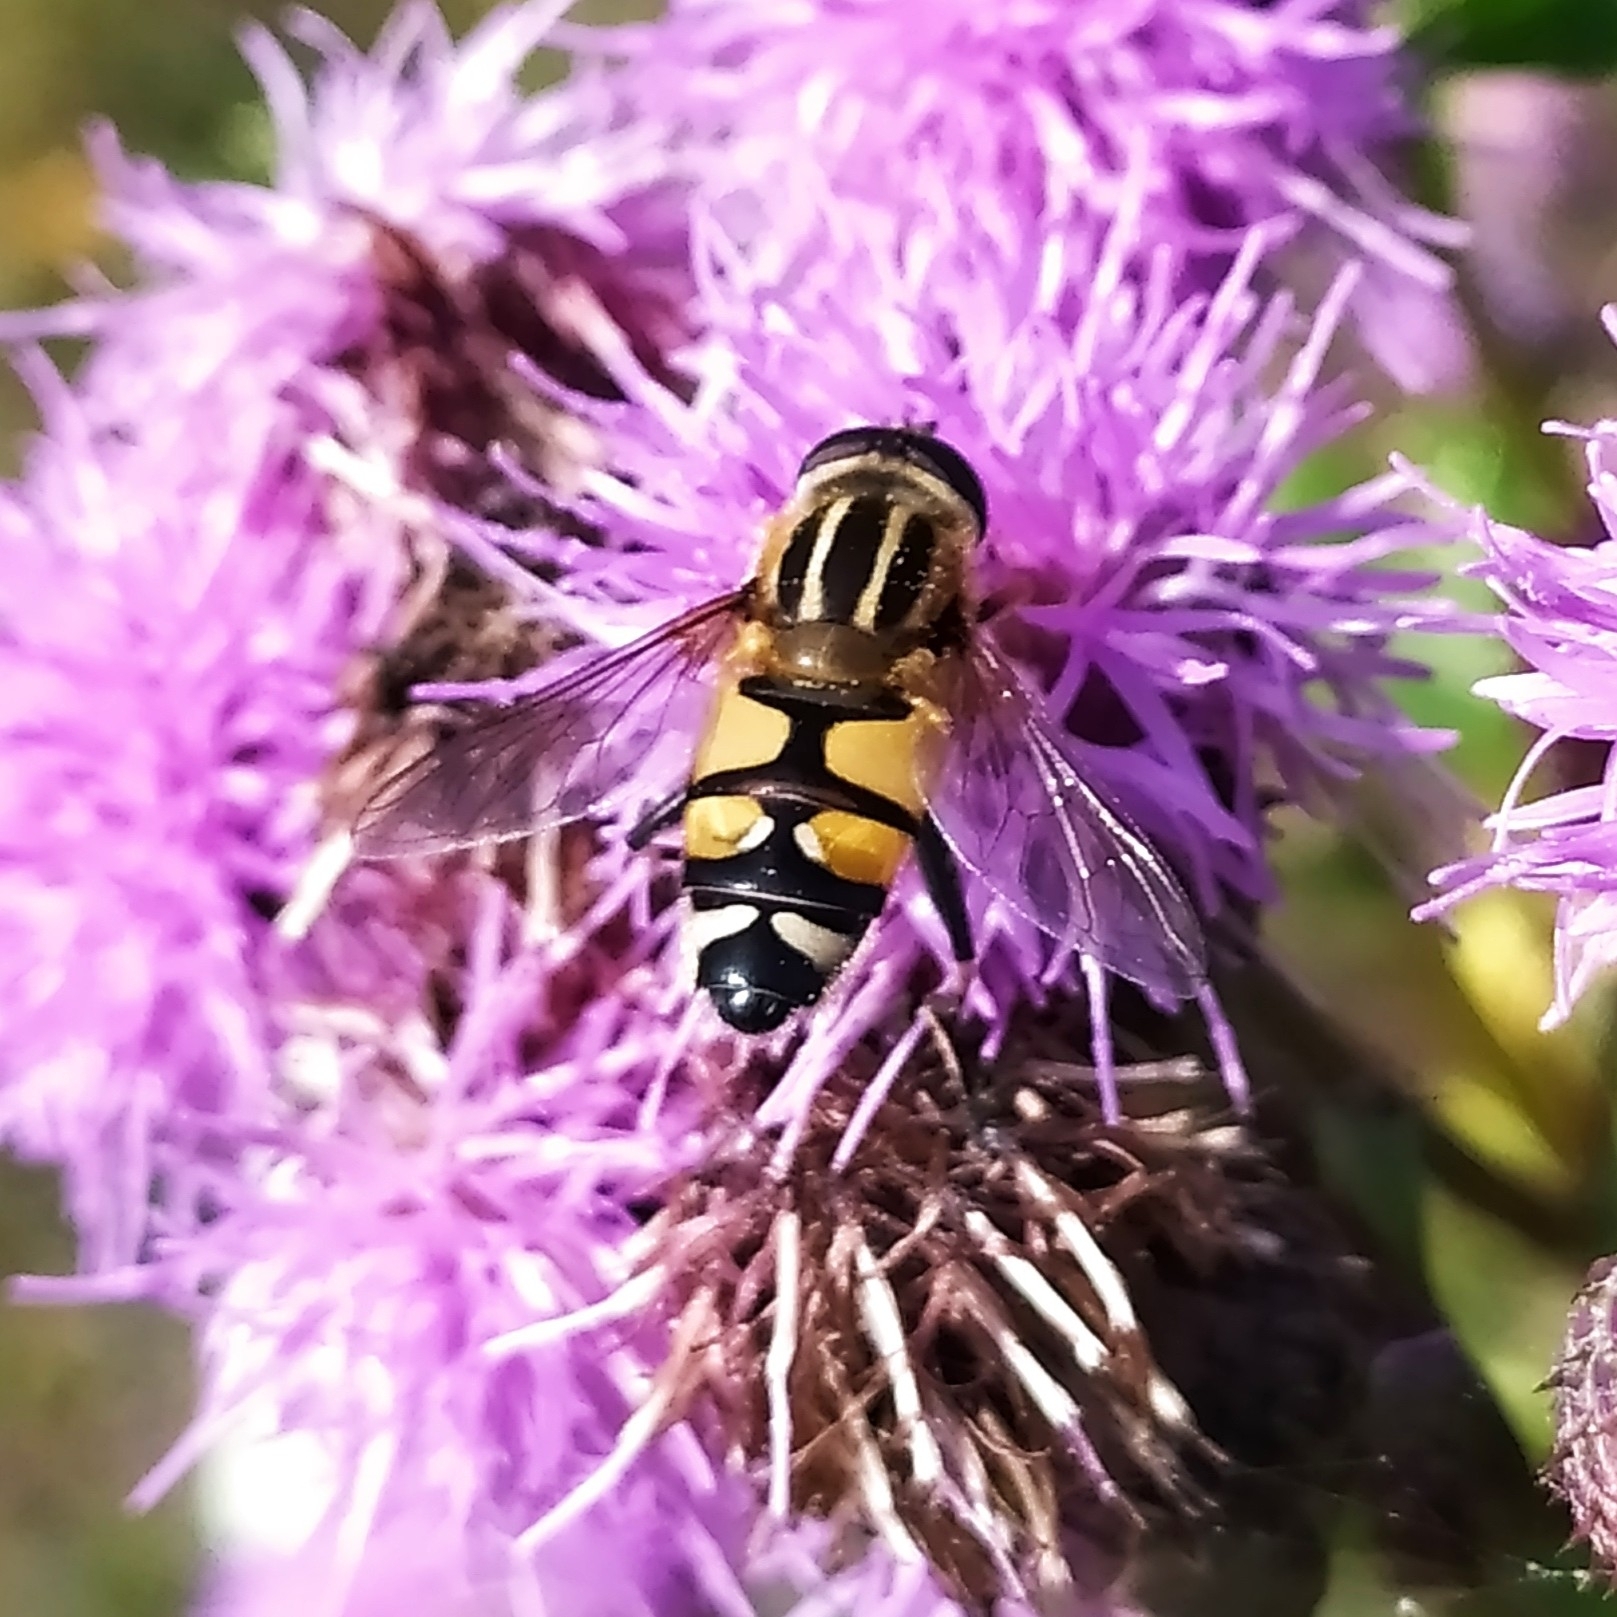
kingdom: Animalia
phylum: Arthropoda
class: Insecta
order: Diptera
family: Syrphidae
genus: Helophilus
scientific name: Helophilus affinis
